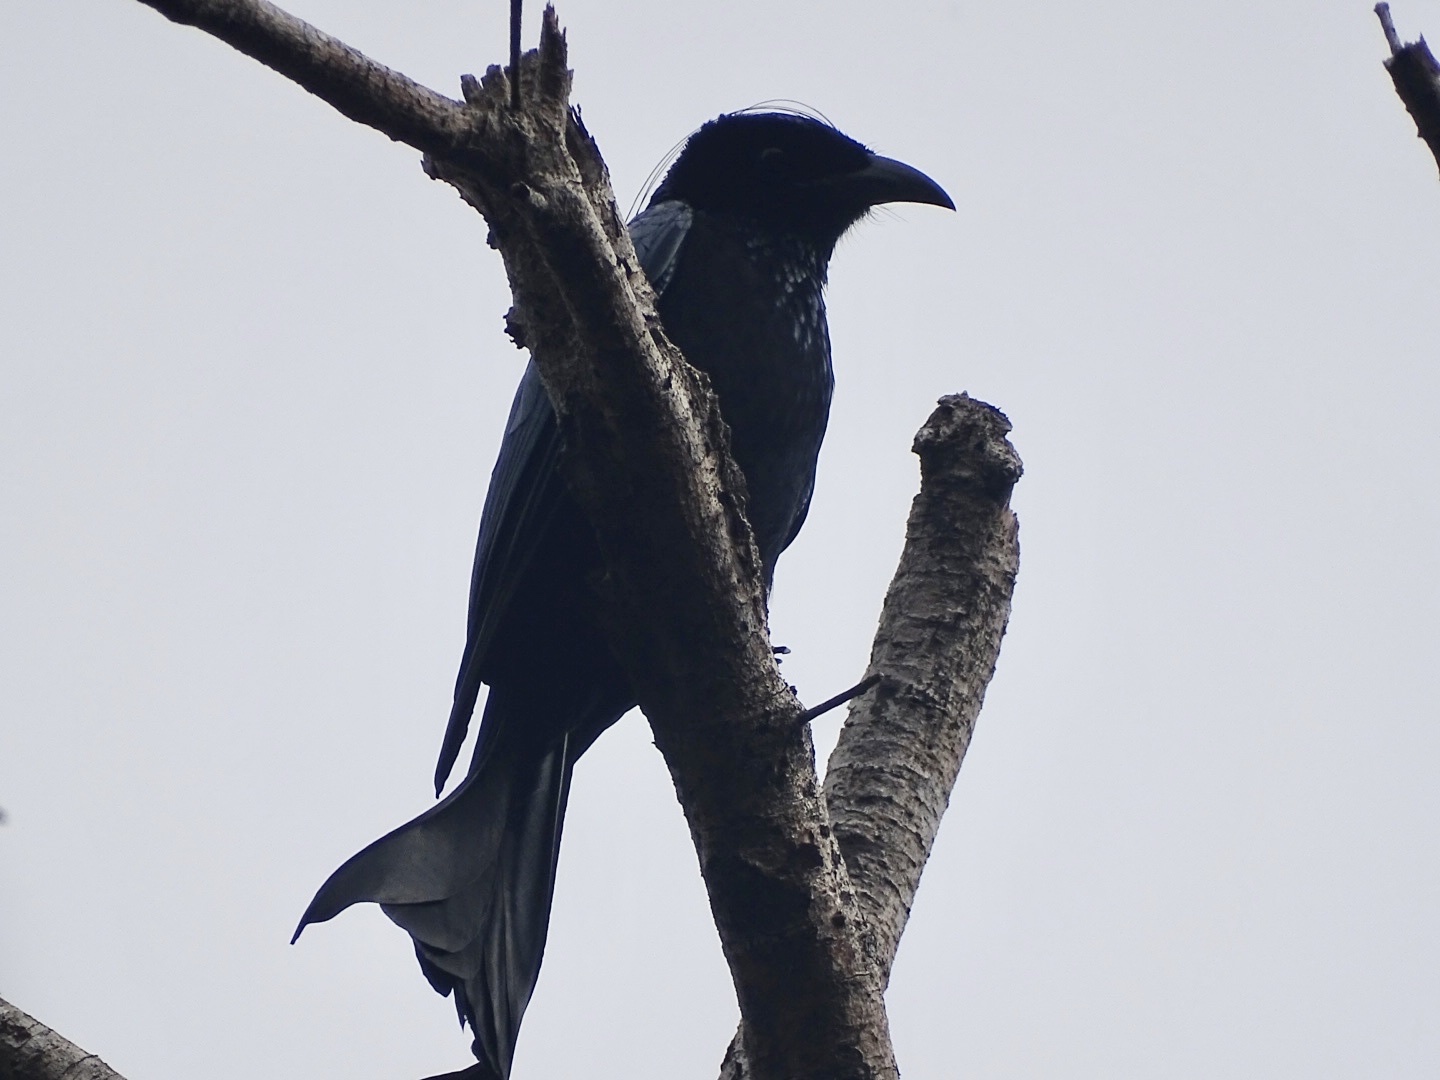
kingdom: Animalia
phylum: Chordata
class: Aves
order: Passeriformes
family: Dicruridae
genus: Dicrurus
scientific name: Dicrurus hottentottus
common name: Hair-crested drongo
